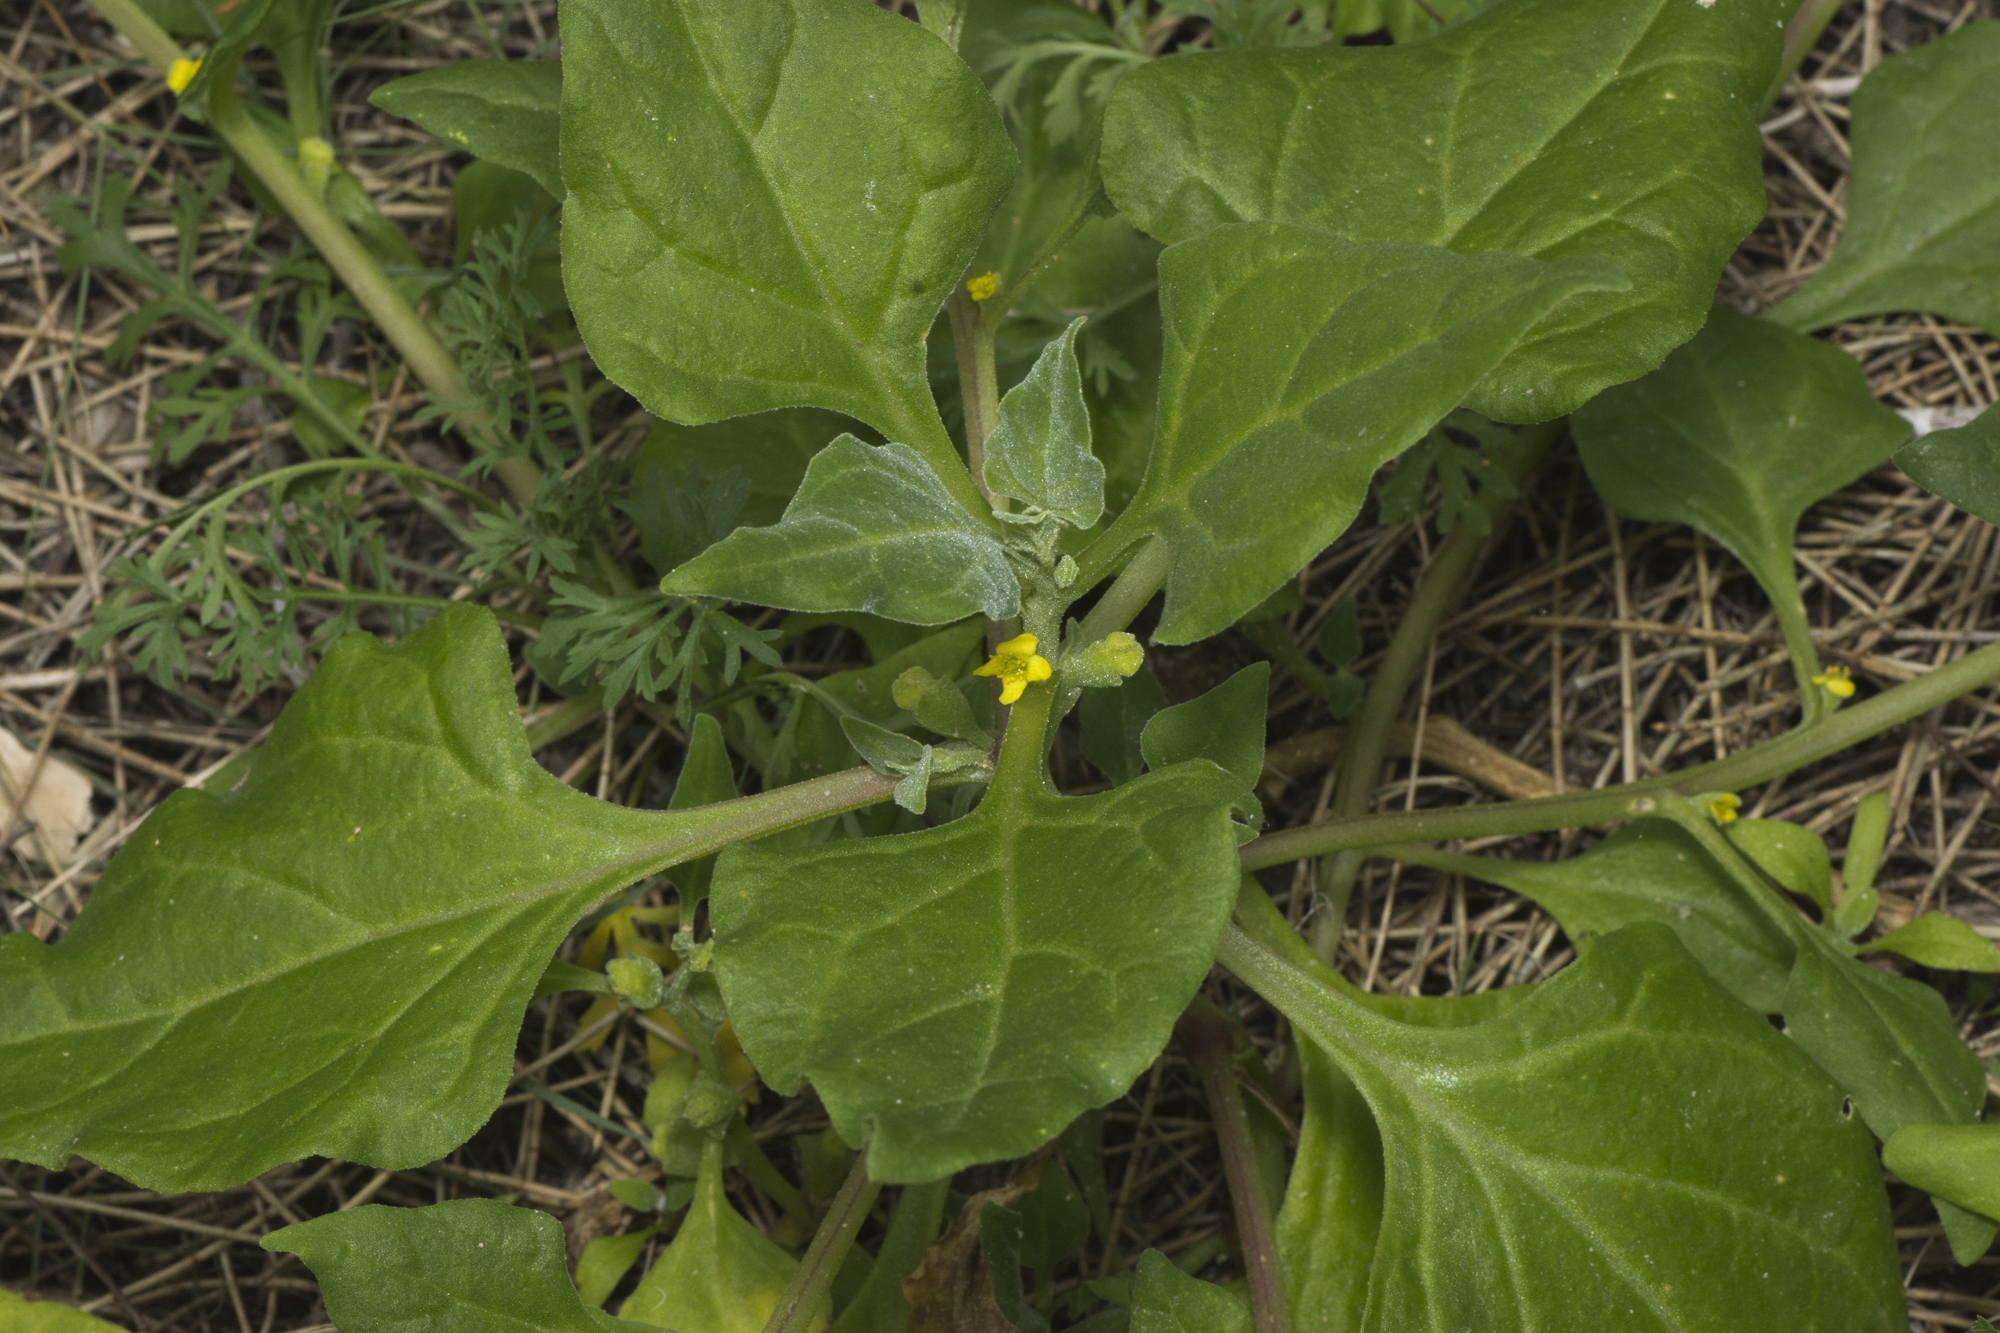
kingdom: Plantae
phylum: Tracheophyta
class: Magnoliopsida
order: Caryophyllales
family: Aizoaceae
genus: Tetragonia
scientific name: Tetragonia tetragonoides
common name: New zealand-spinach
